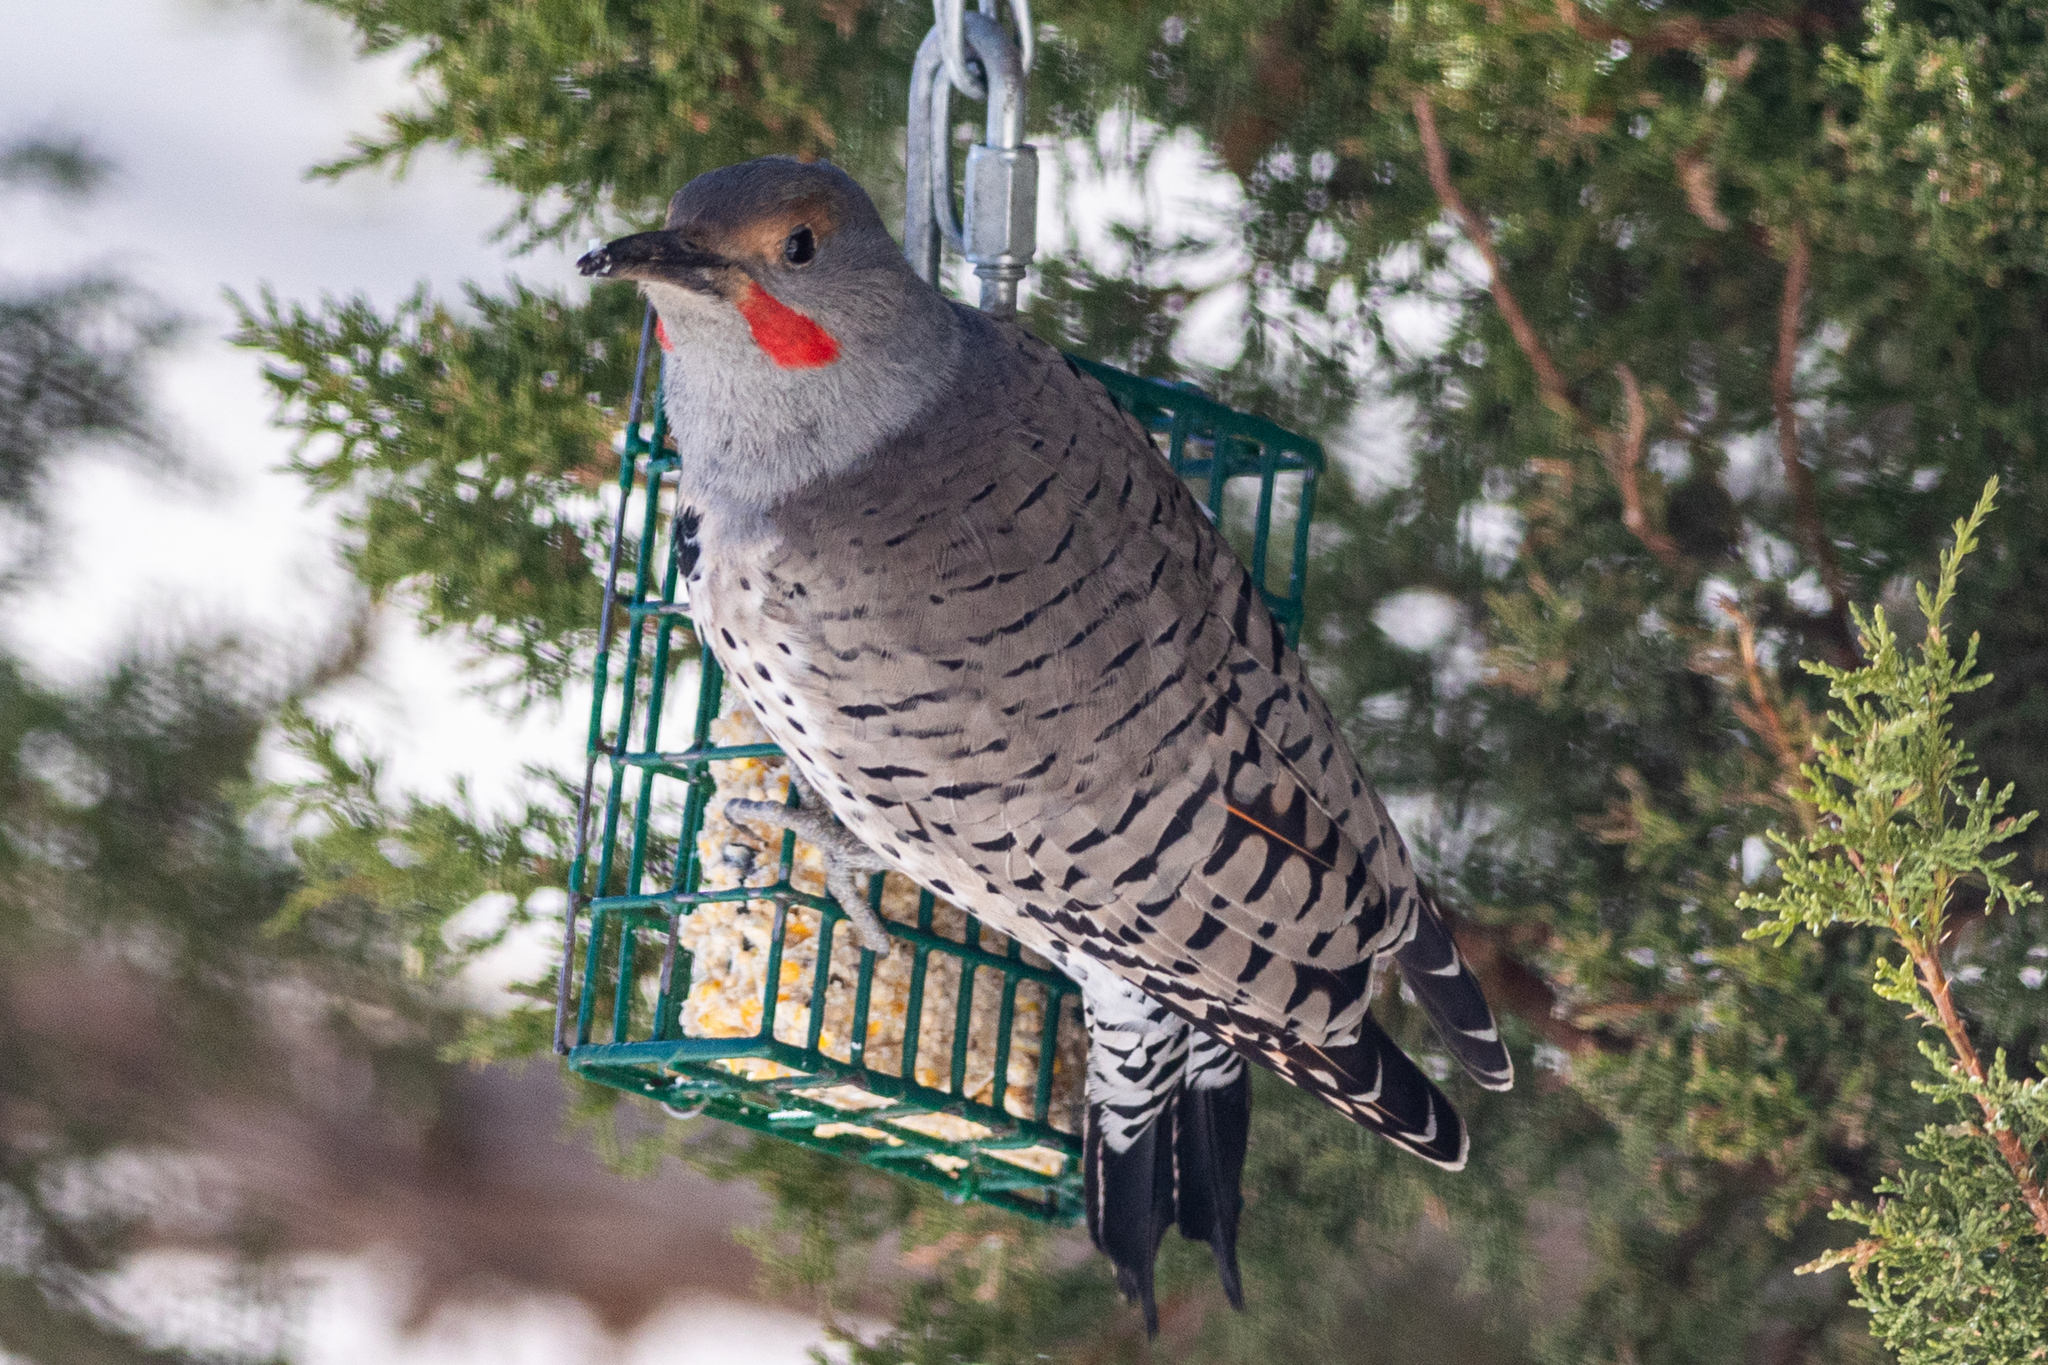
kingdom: Animalia
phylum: Chordata
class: Aves
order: Piciformes
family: Picidae
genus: Colaptes
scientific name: Colaptes auratus
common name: Northern flicker
